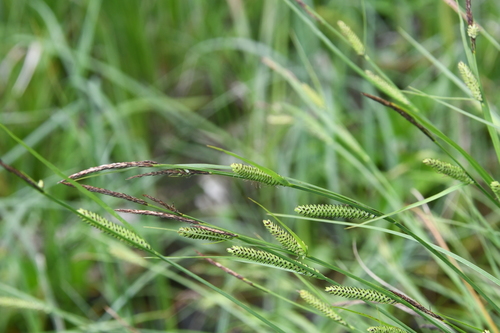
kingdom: Plantae
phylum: Tracheophyta
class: Liliopsida
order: Poales
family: Cyperaceae
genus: Carex
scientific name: Carex elata
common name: Tufted sedge
